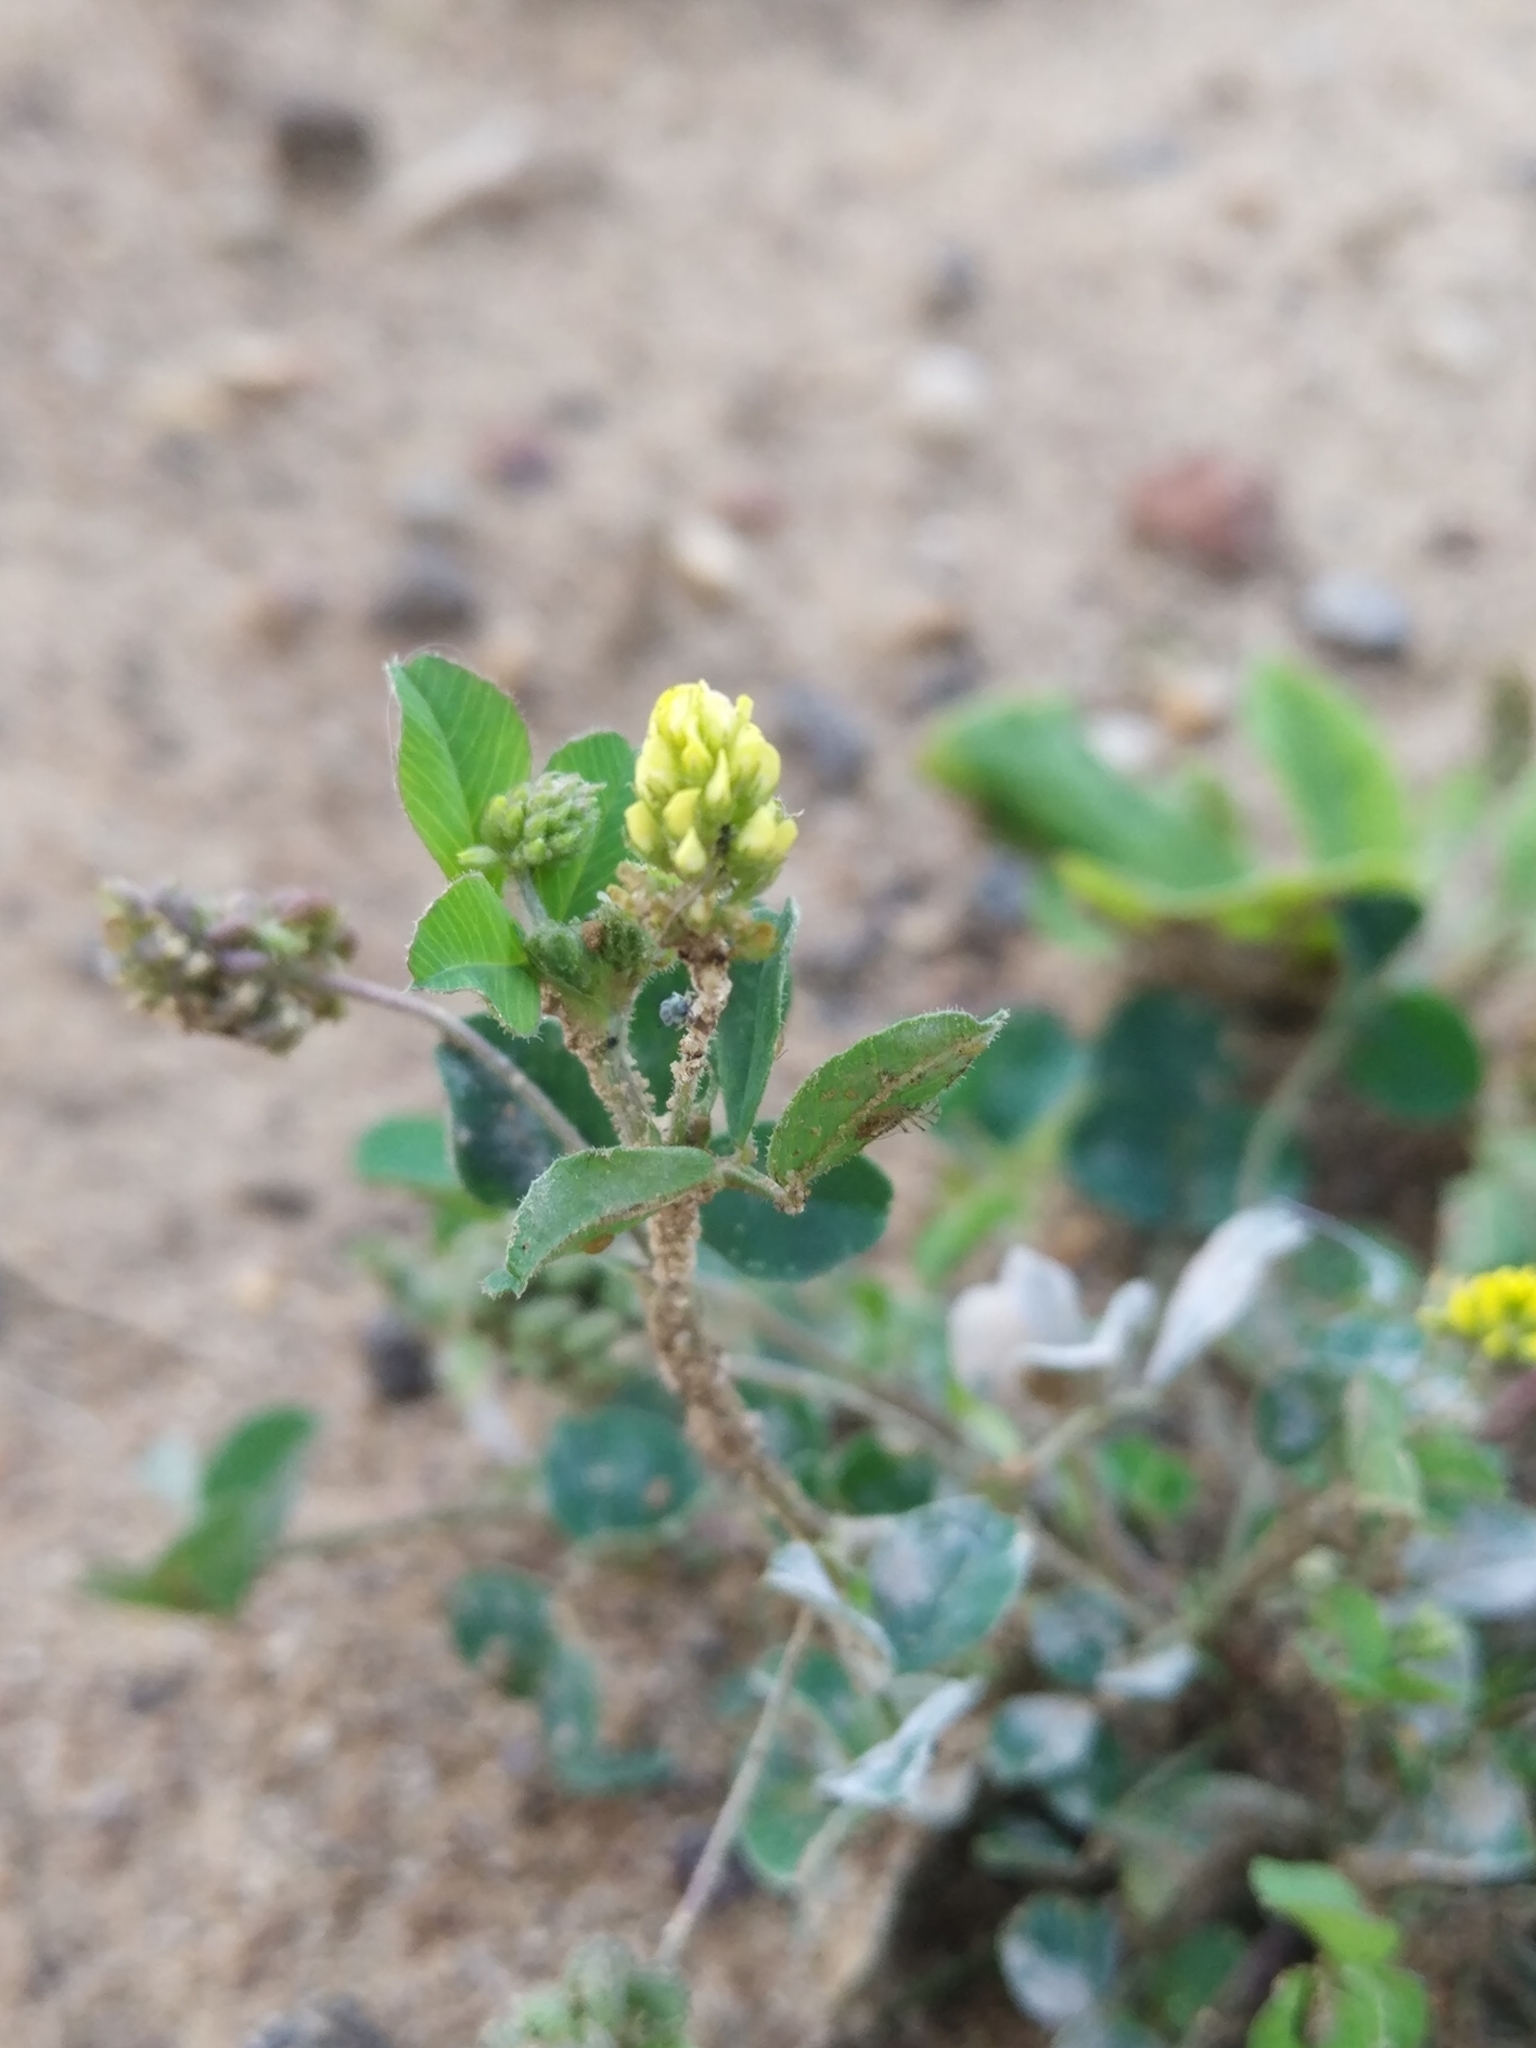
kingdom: Plantae
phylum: Tracheophyta
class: Magnoliopsida
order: Fabales
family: Fabaceae
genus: Medicago
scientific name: Medicago lupulina
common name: Black medick
